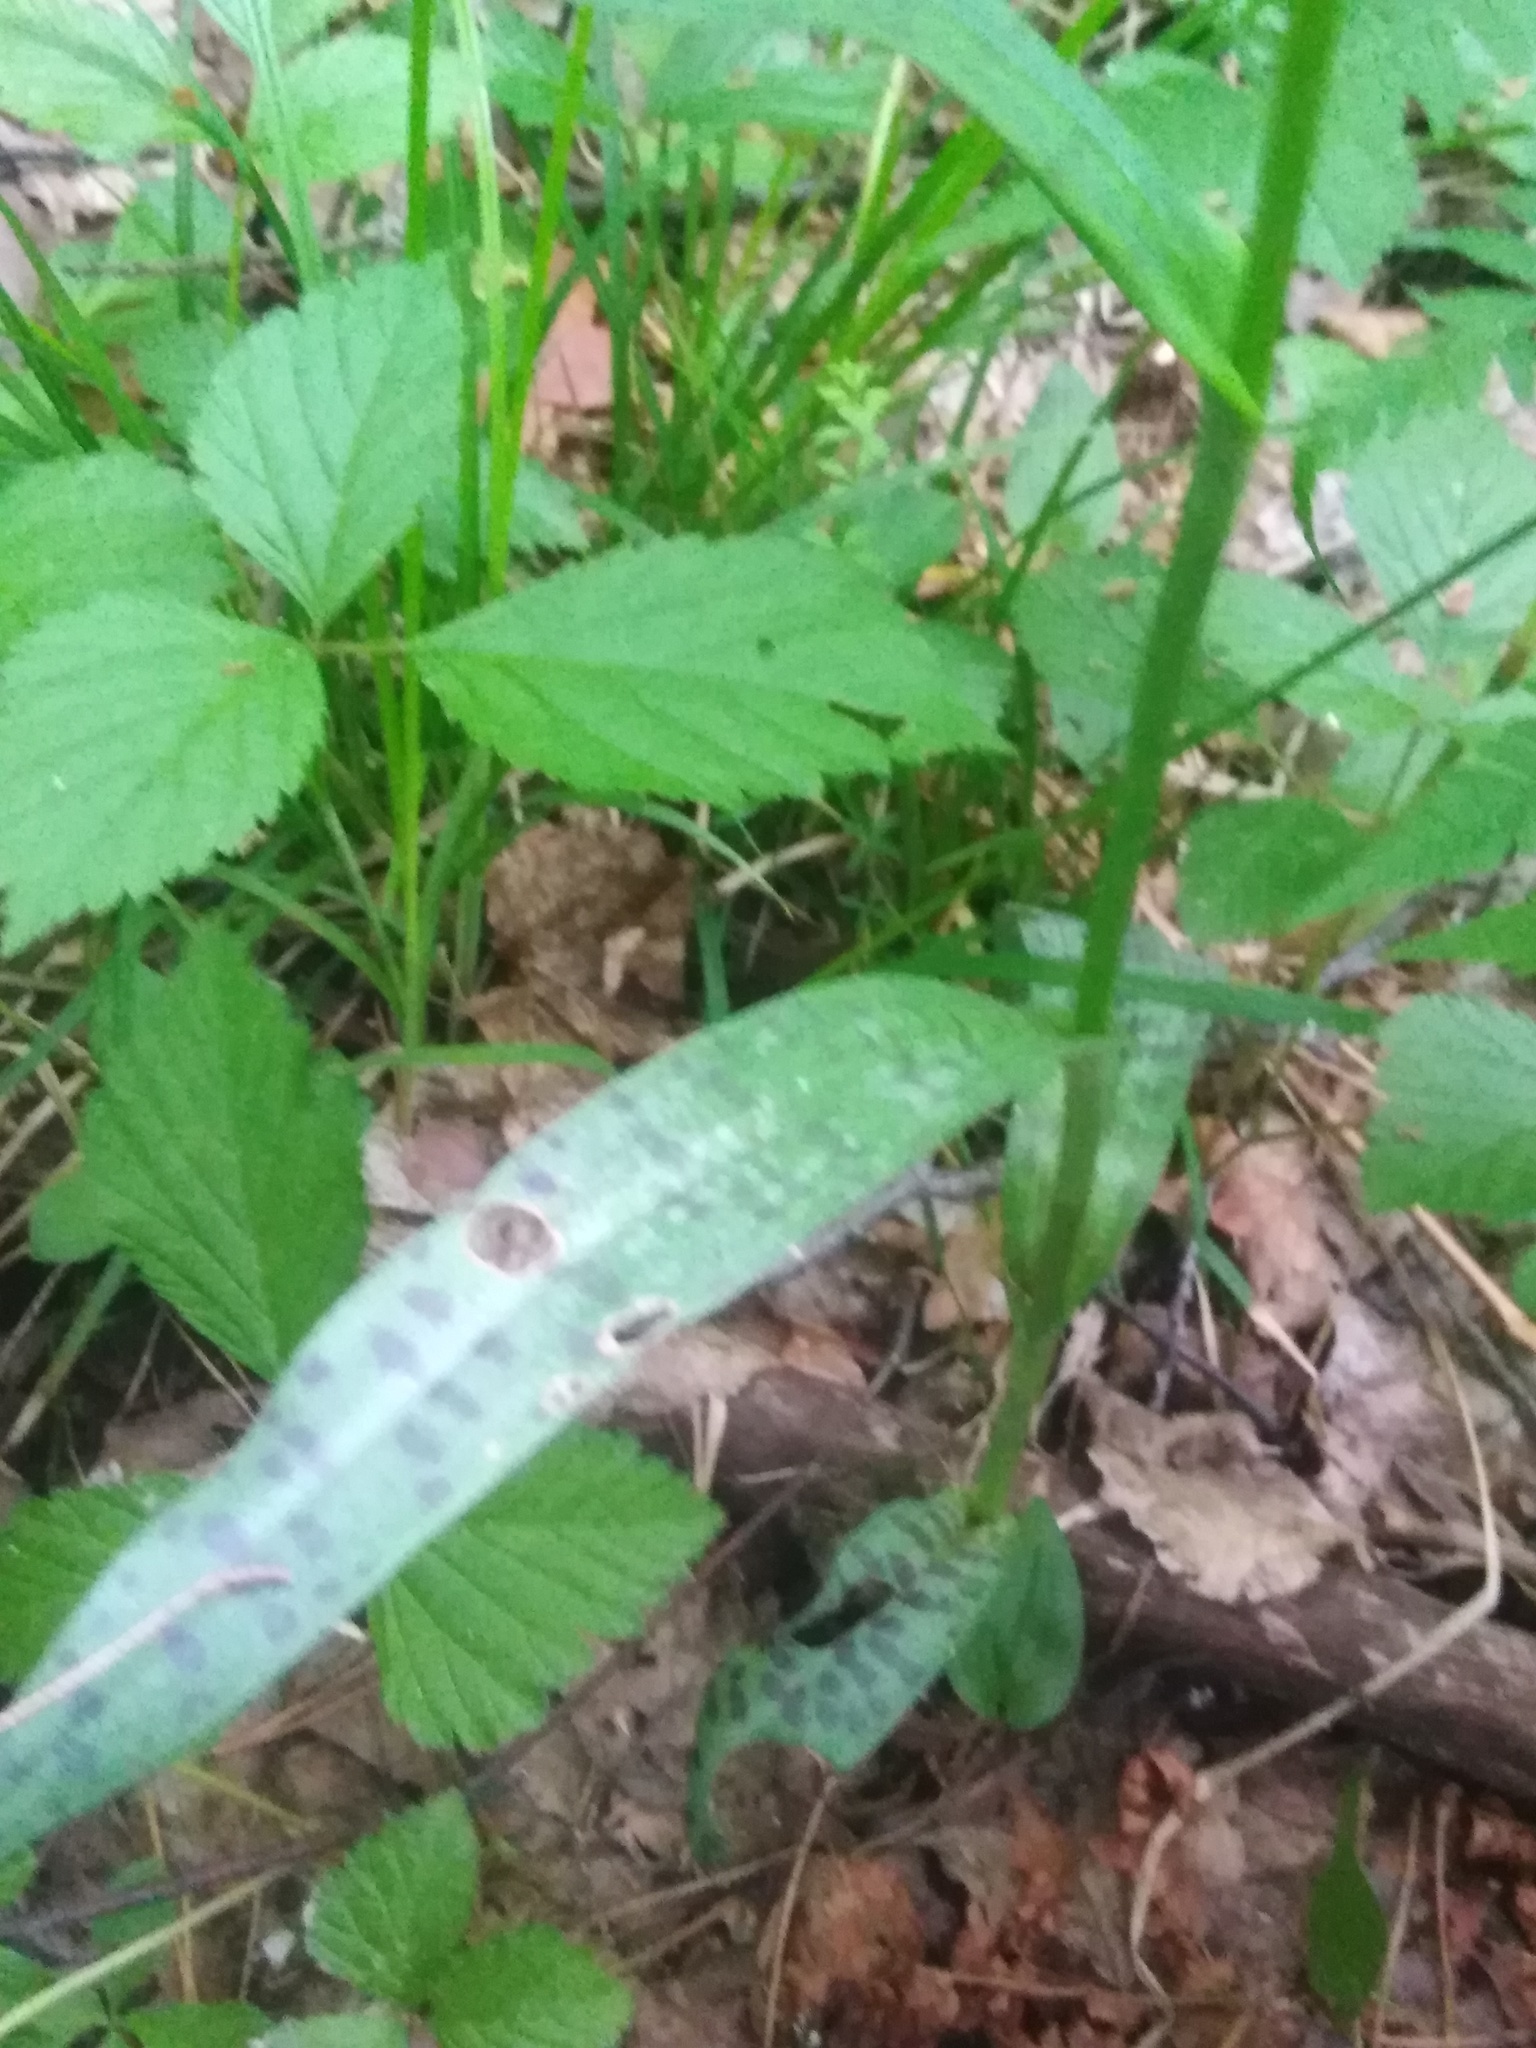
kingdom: Plantae
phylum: Tracheophyta
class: Liliopsida
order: Asparagales
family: Orchidaceae
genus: Dactylorhiza
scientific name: Dactylorhiza maculata
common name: Heath spotted-orchid
